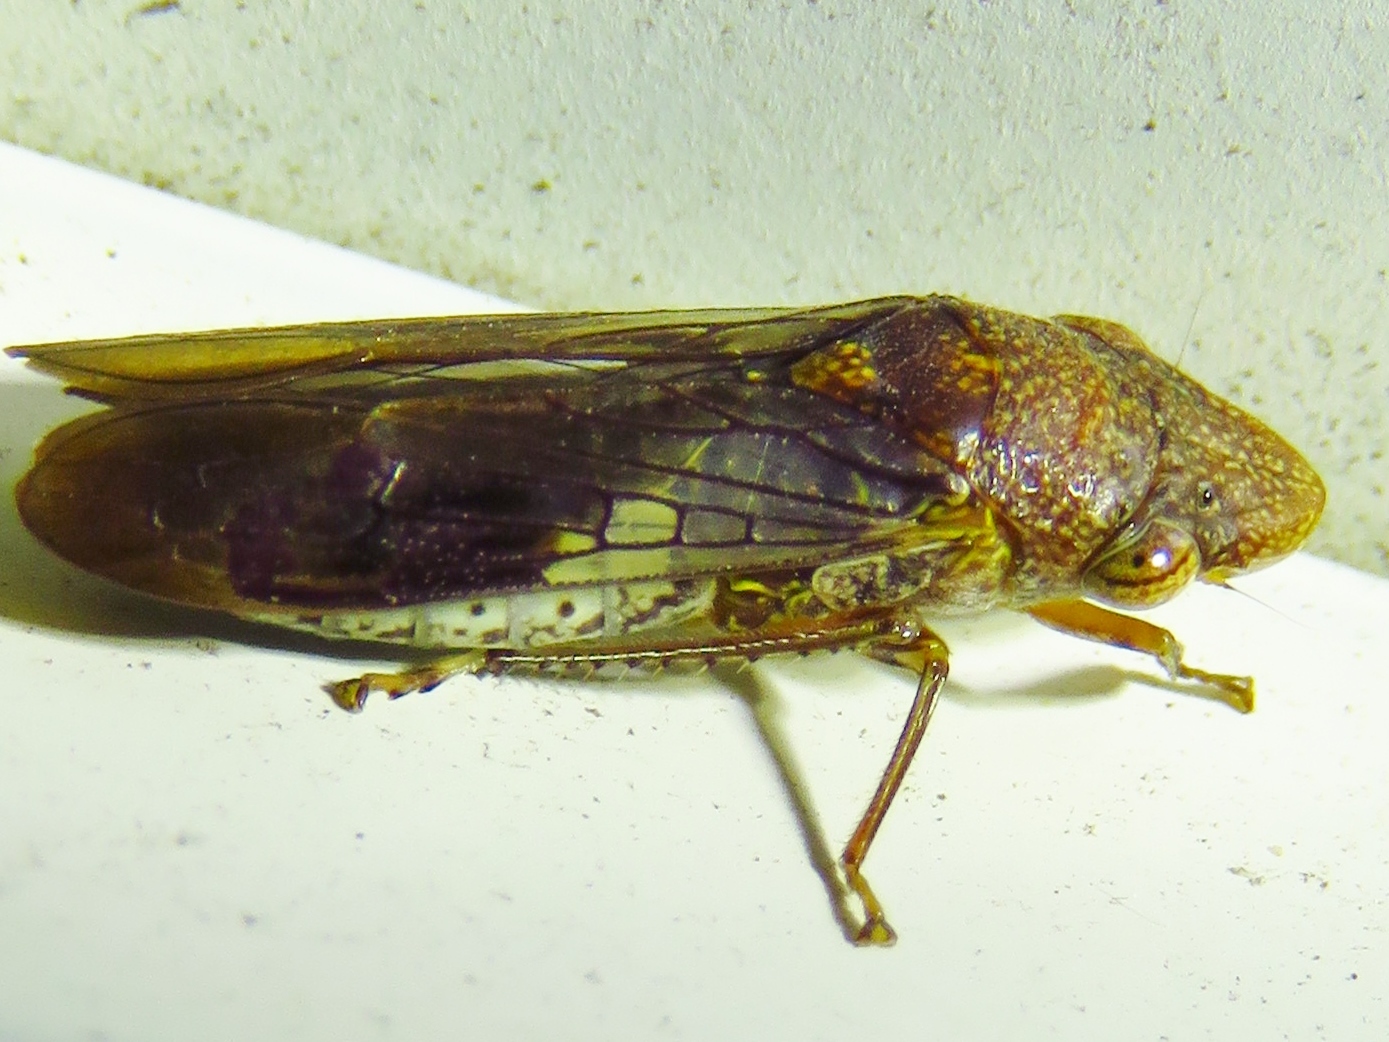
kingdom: Animalia
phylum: Arthropoda
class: Insecta
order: Hemiptera
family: Cicadellidae
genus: Homalodisca
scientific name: Homalodisca vitripennis
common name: Glassy-winged sharpshooter
